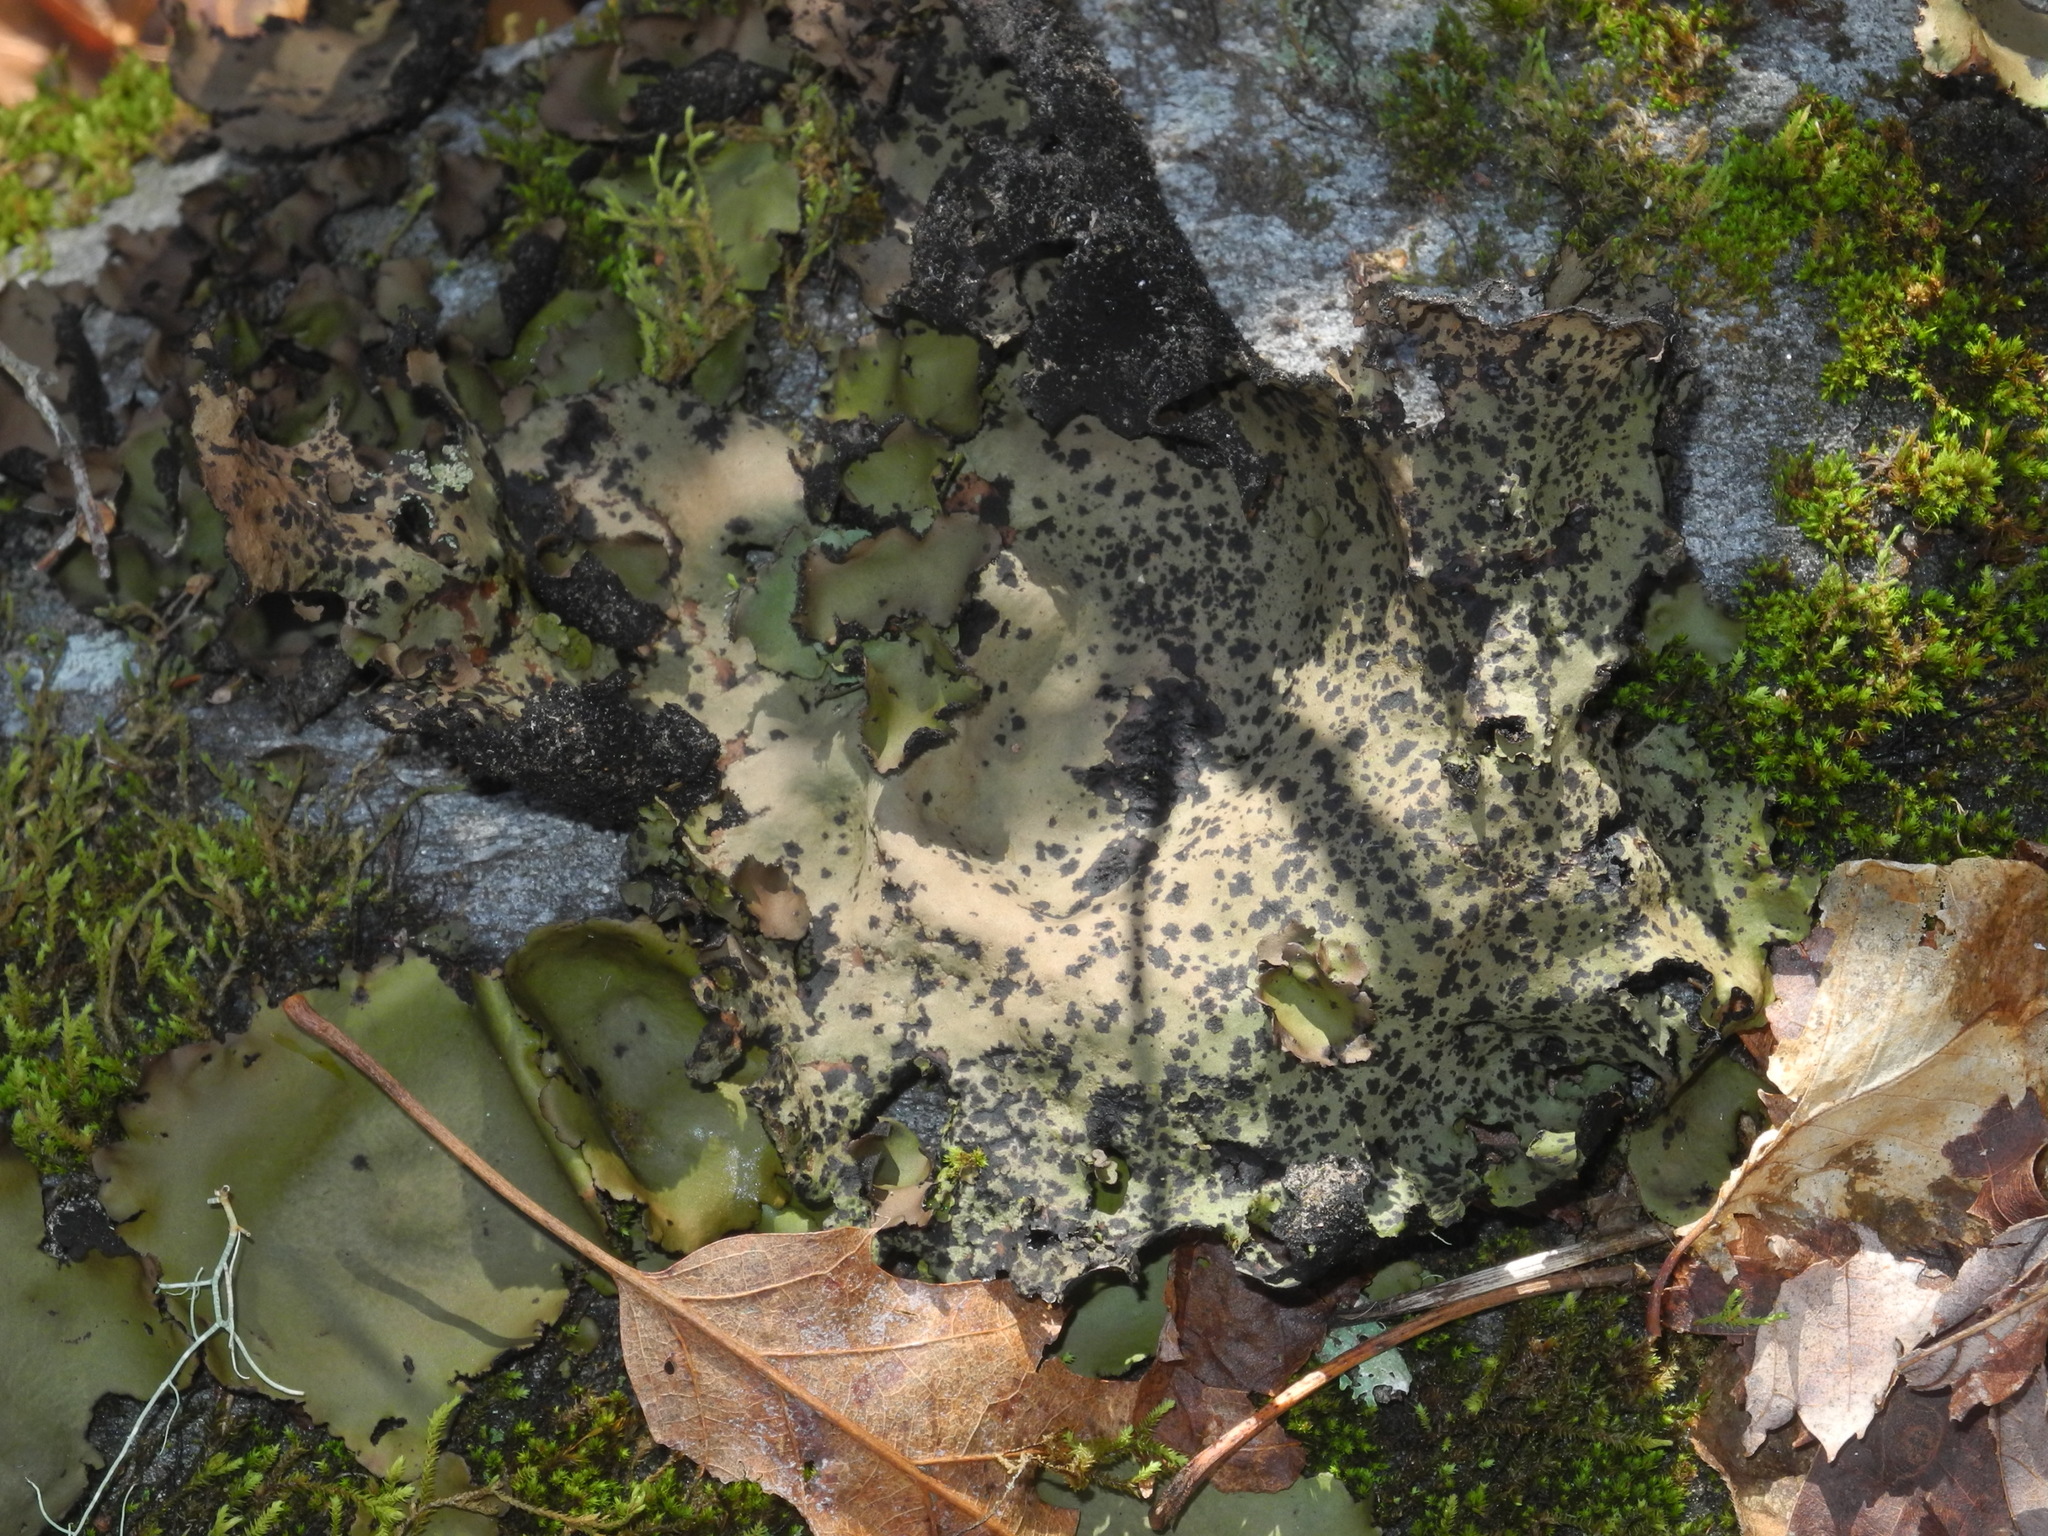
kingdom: Fungi
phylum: Ascomycota
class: Lecanoromycetes
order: Umbilicariales
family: Umbilicariaceae
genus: Umbilicaria
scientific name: Umbilicaria mammulata
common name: Smooth rock tripe
